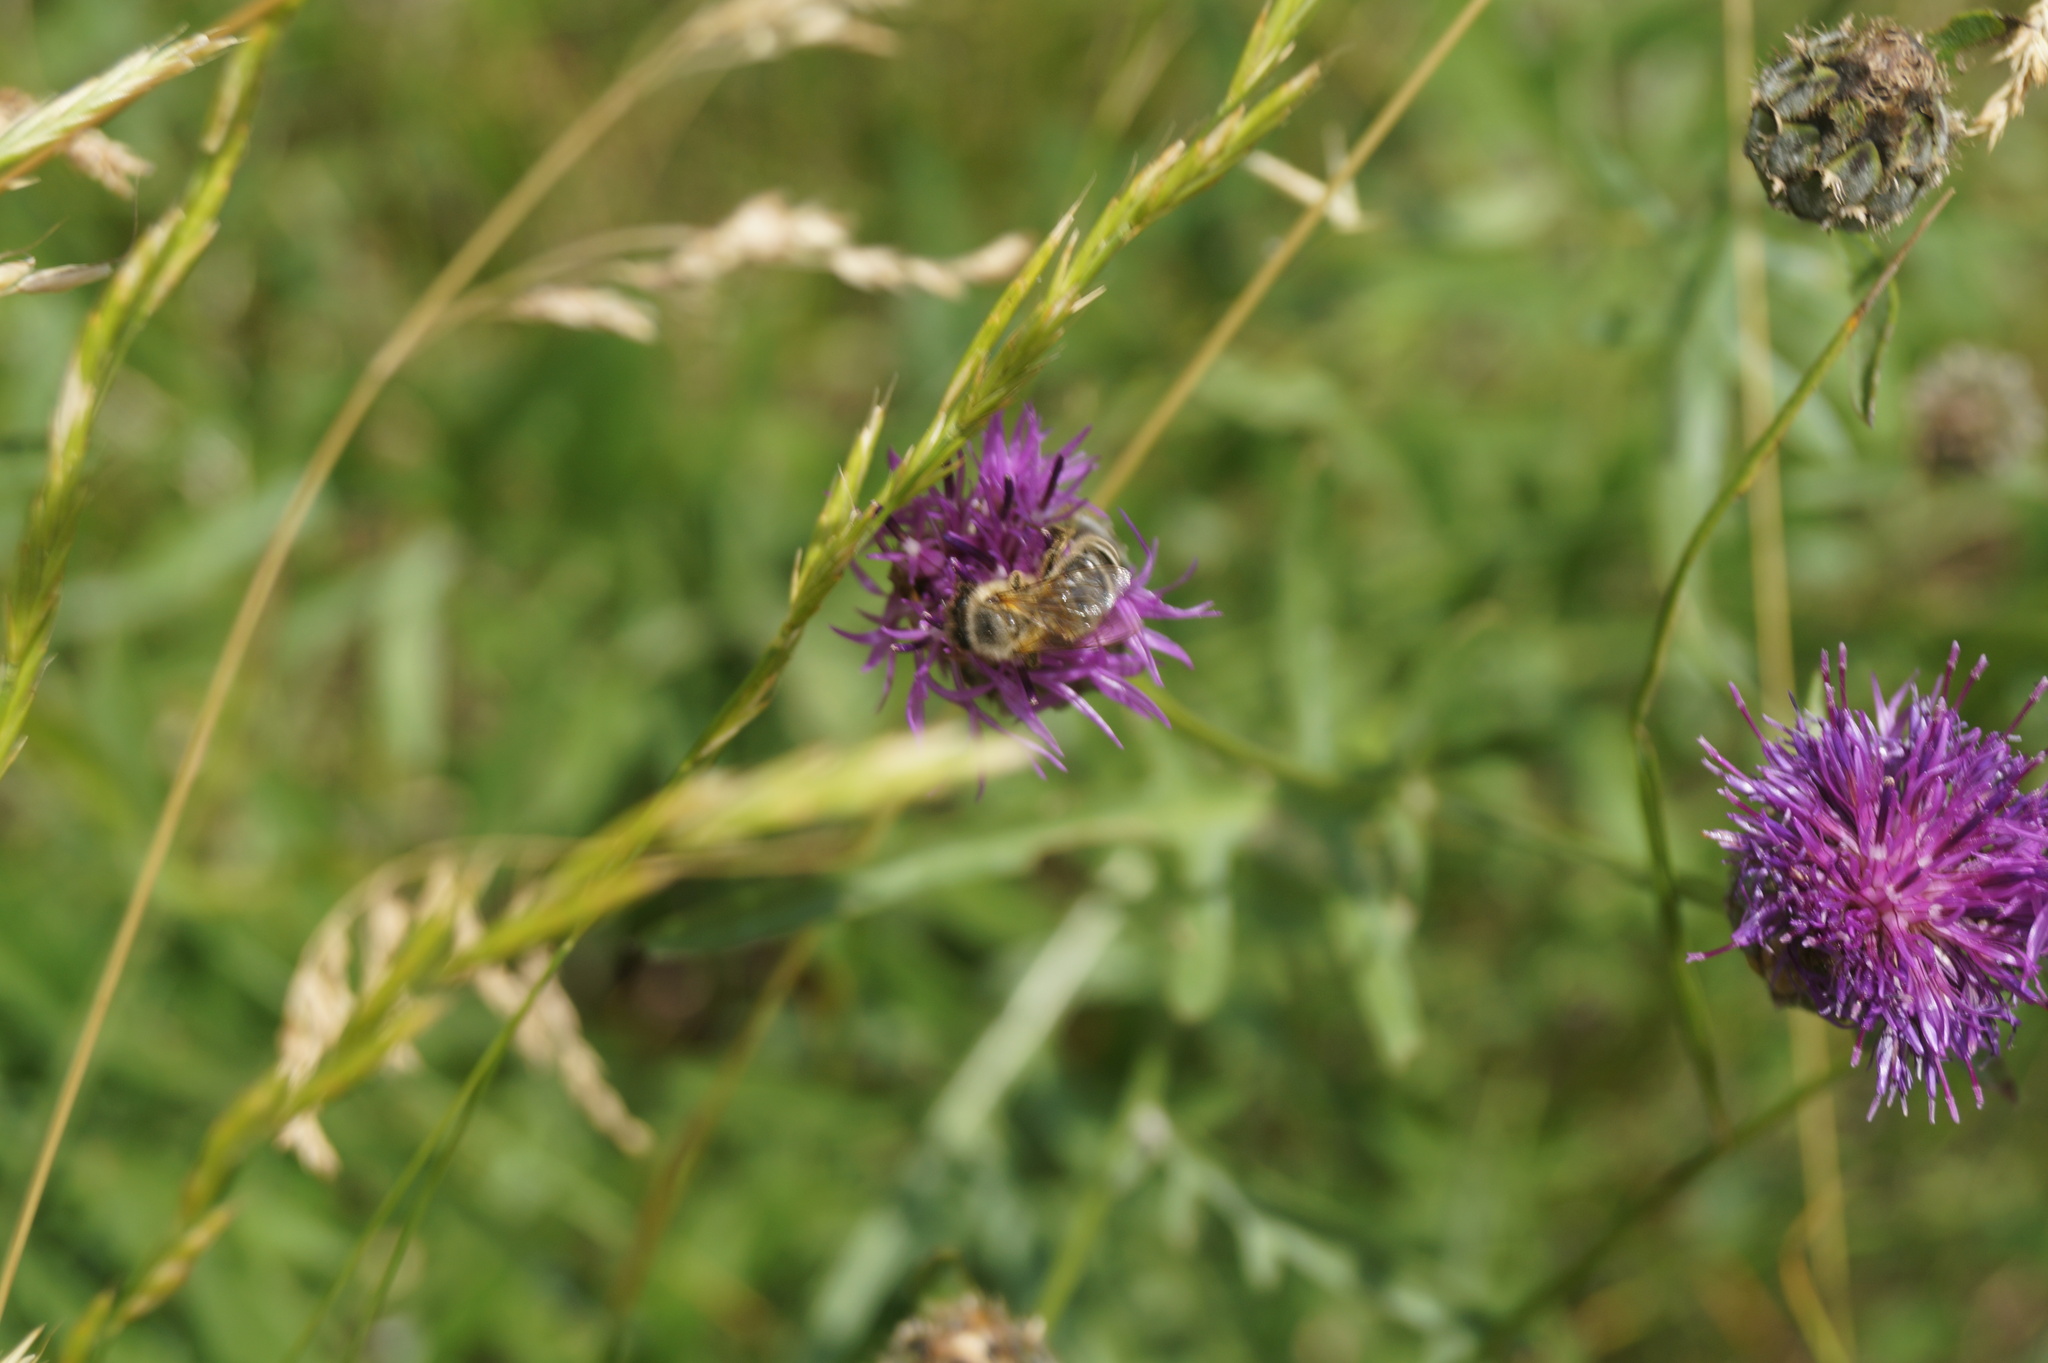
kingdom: Animalia
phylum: Arthropoda
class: Insecta
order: Hymenoptera
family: Apidae
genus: Apis
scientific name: Apis mellifera
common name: Honey bee
